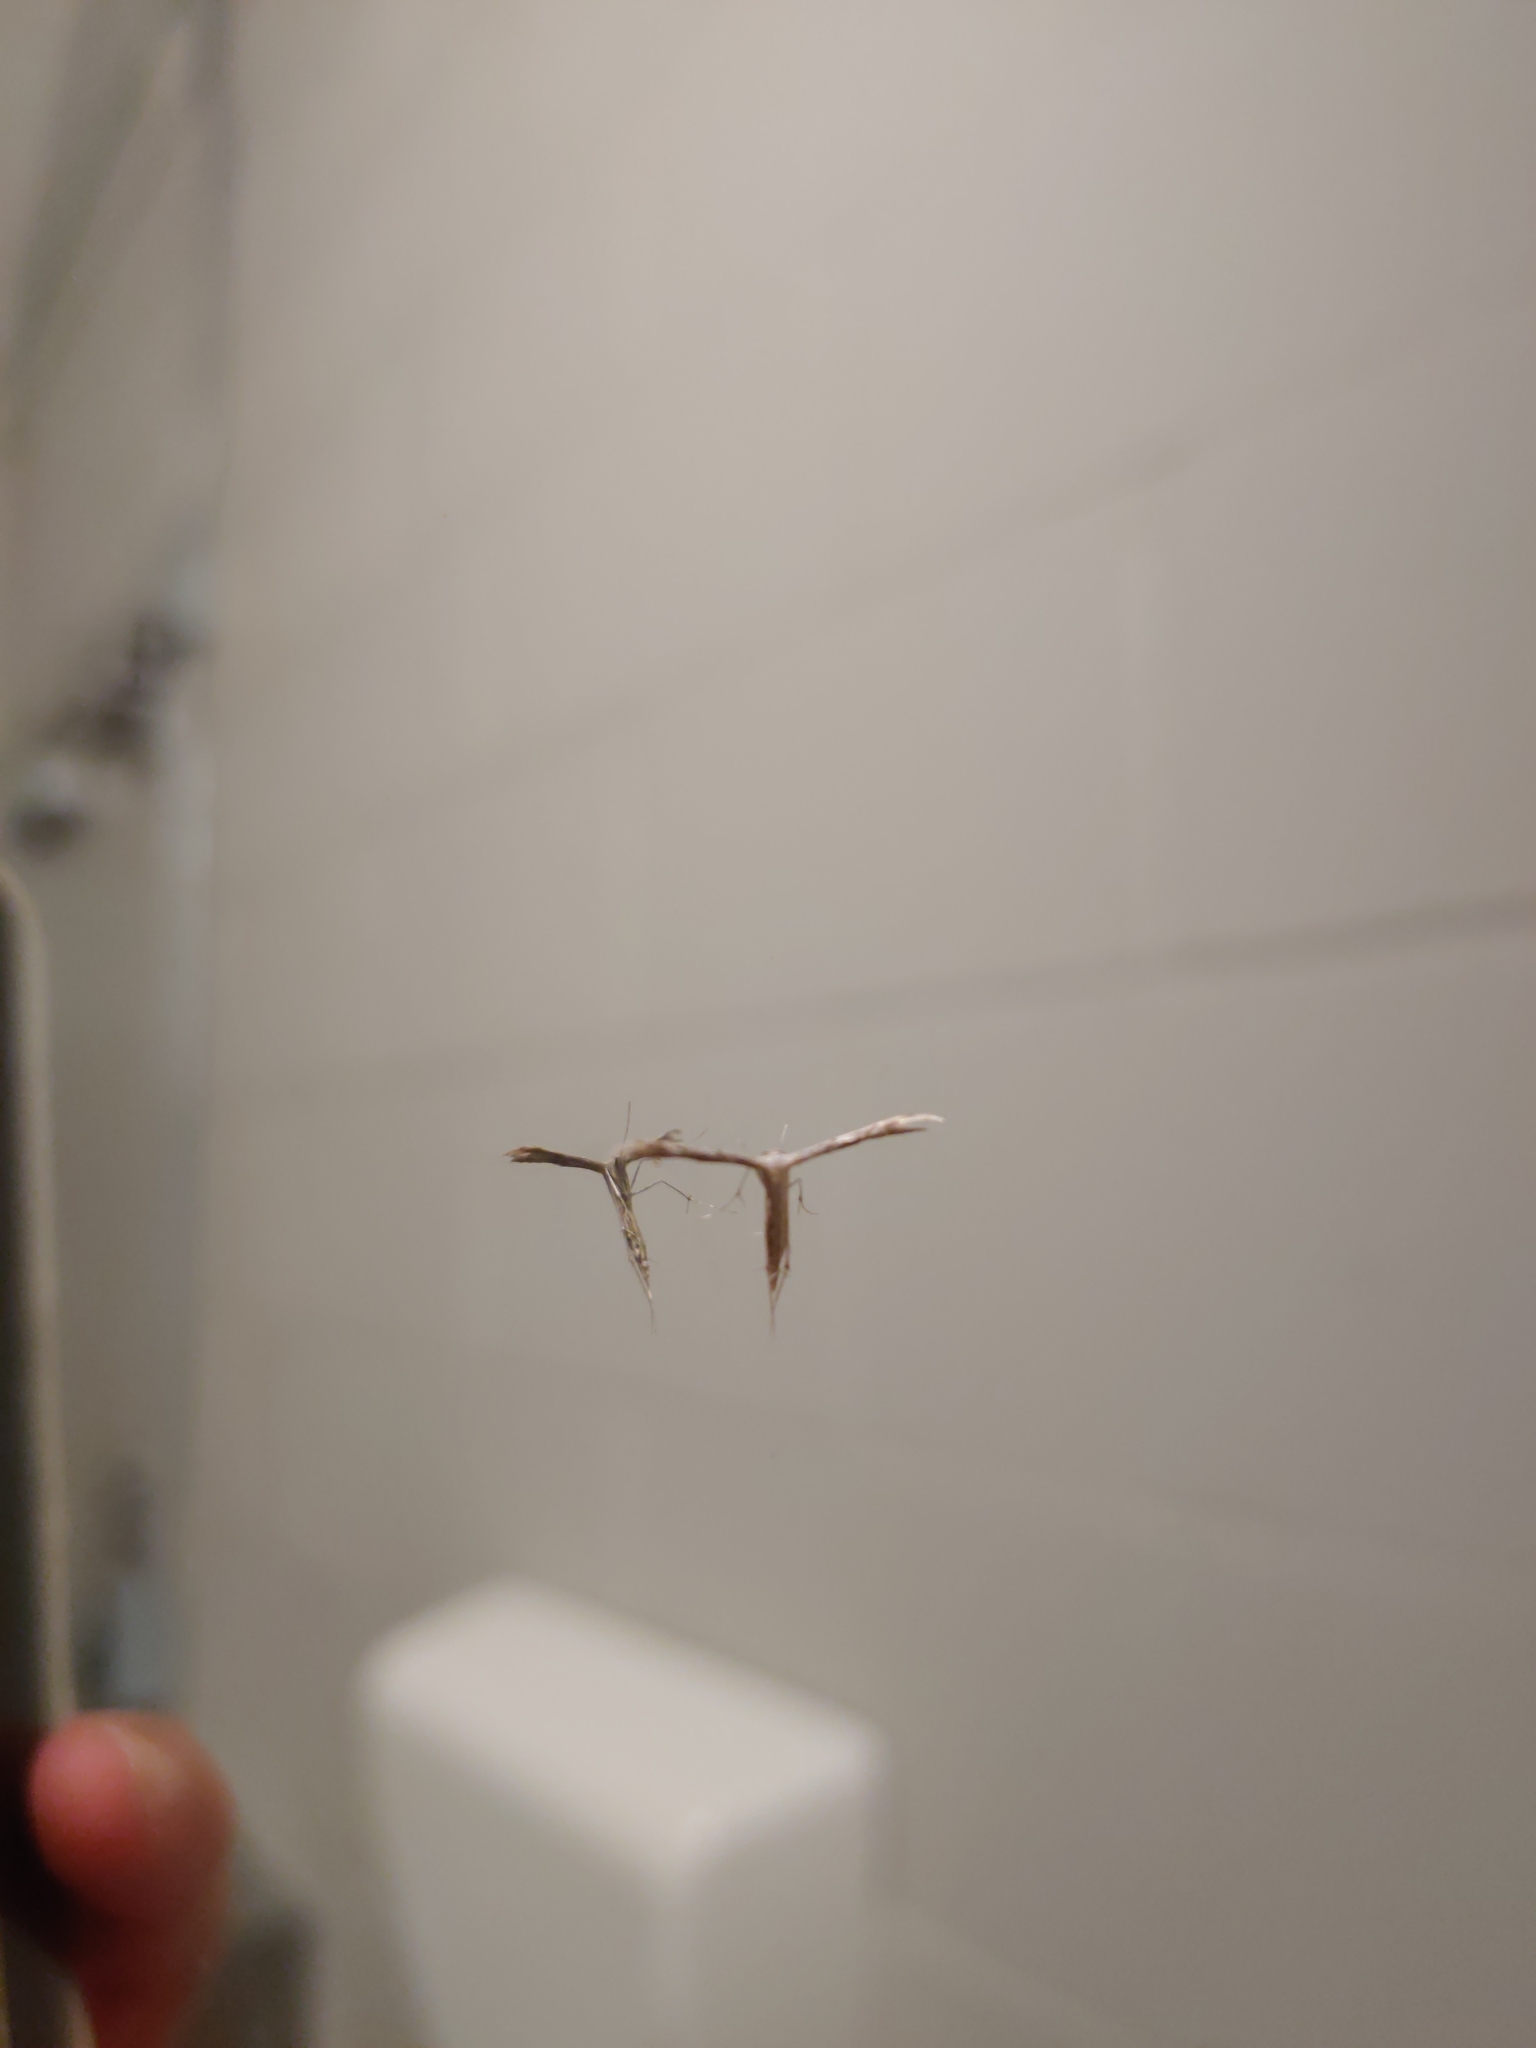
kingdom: Animalia
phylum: Arthropoda
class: Insecta
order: Lepidoptera
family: Pterophoridae
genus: Pselnophorus
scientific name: Pselnophorus belfragei
